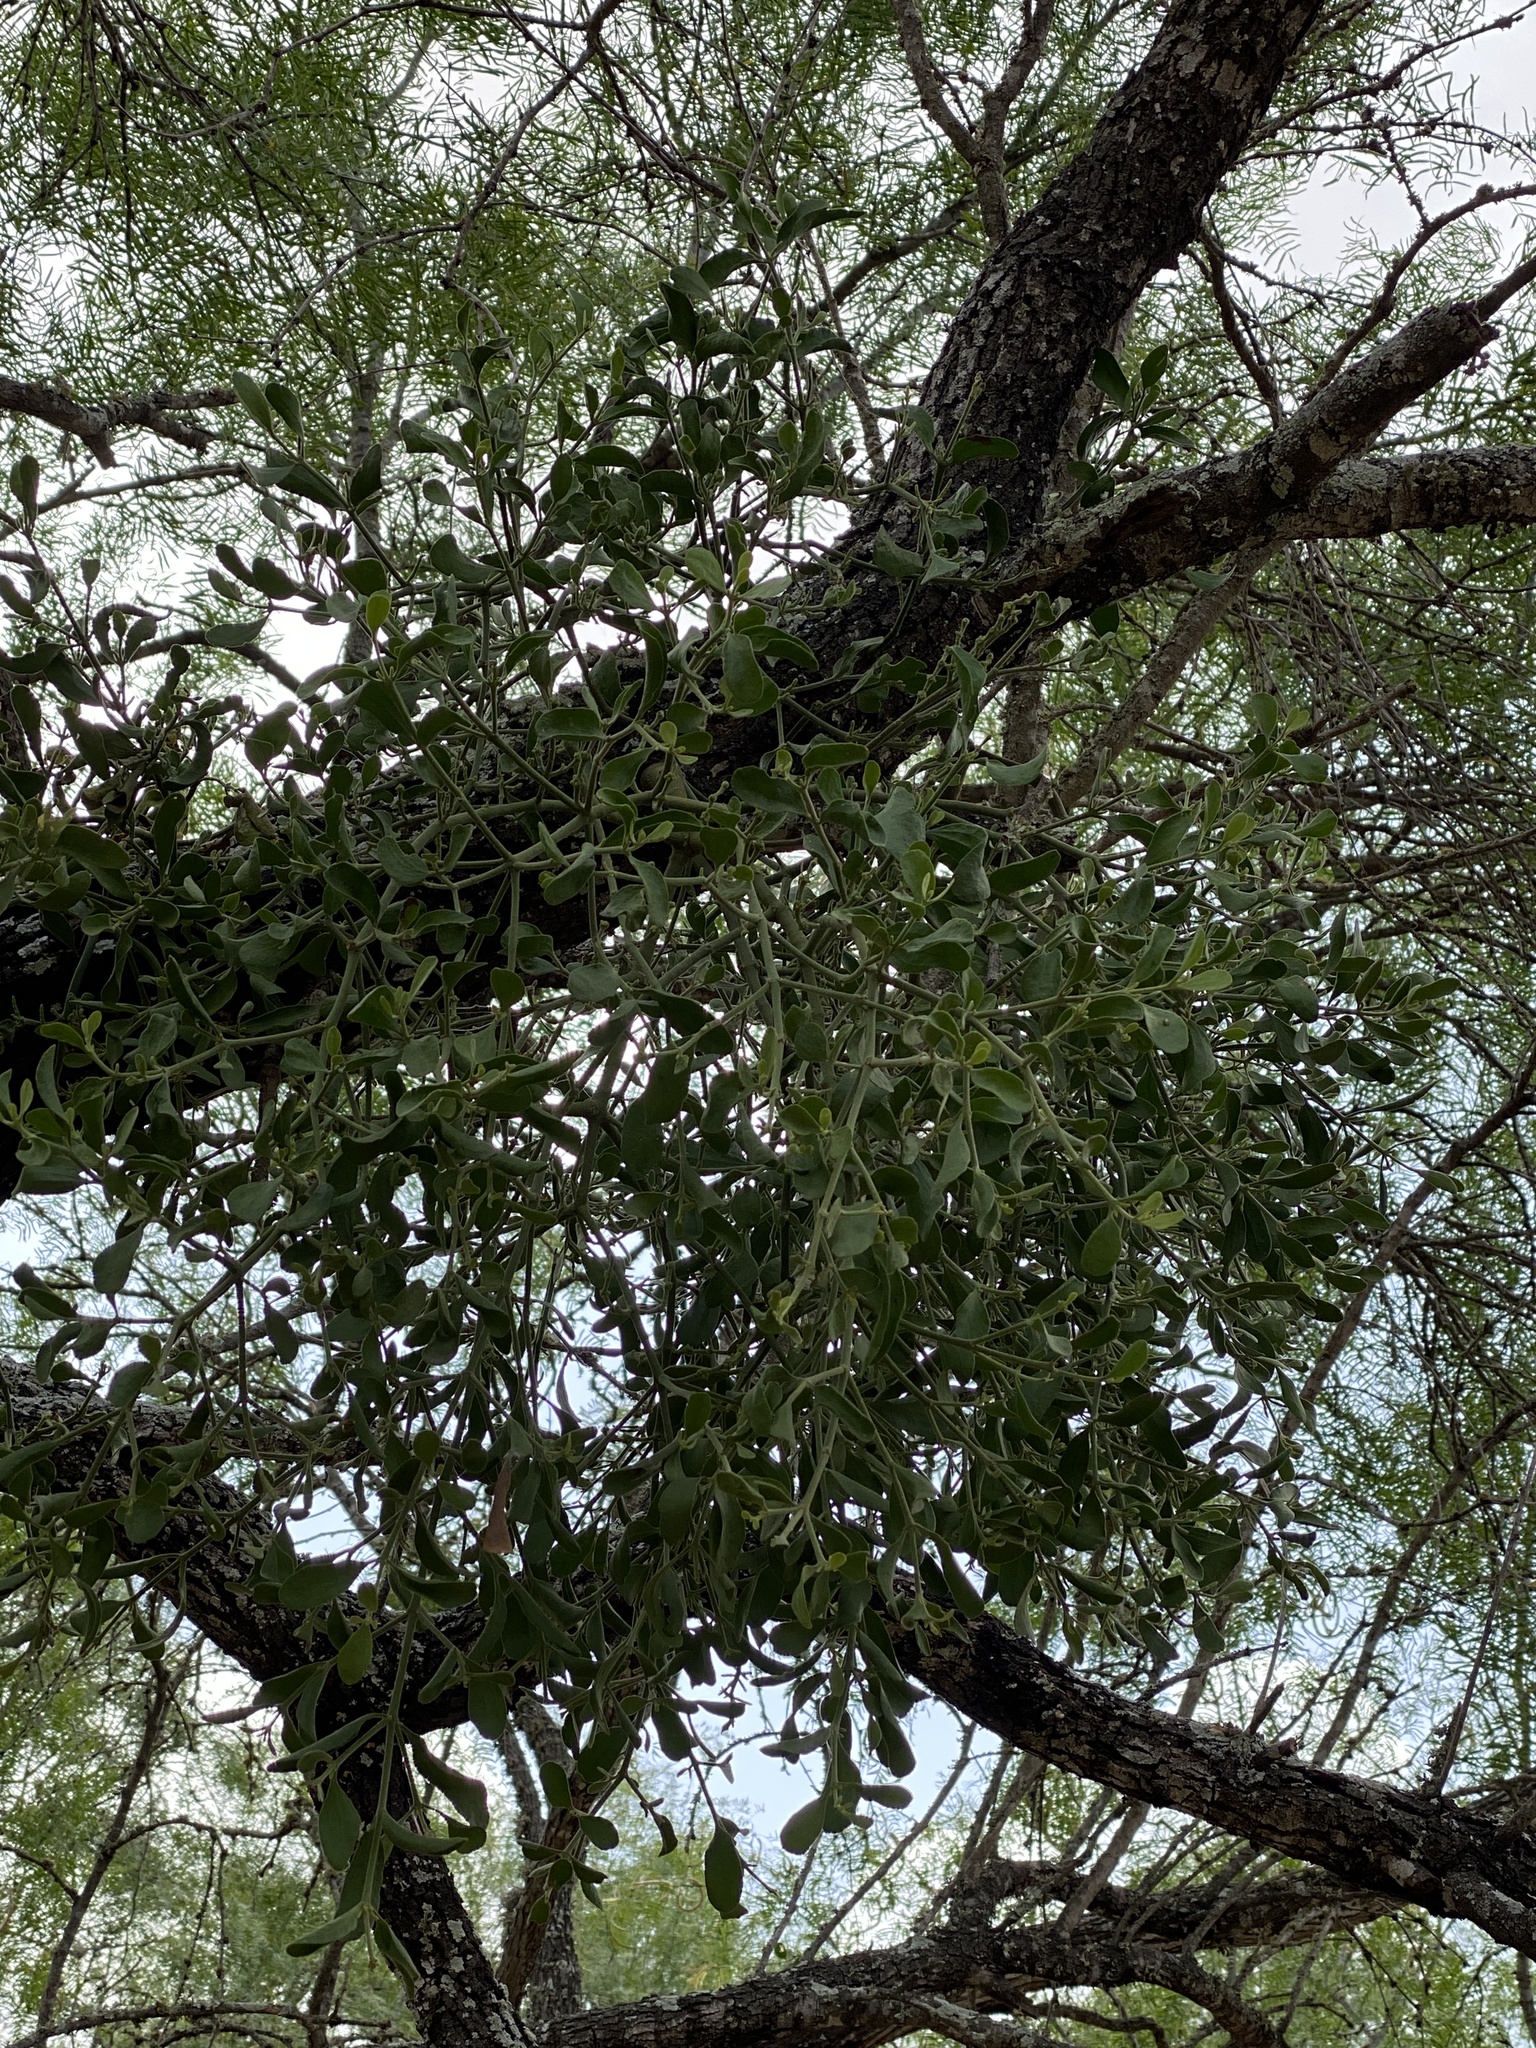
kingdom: Plantae
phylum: Tracheophyta
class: Magnoliopsida
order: Santalales
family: Viscaceae
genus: Phoradendron
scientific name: Phoradendron leucarpum
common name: Pacific mistletoe
